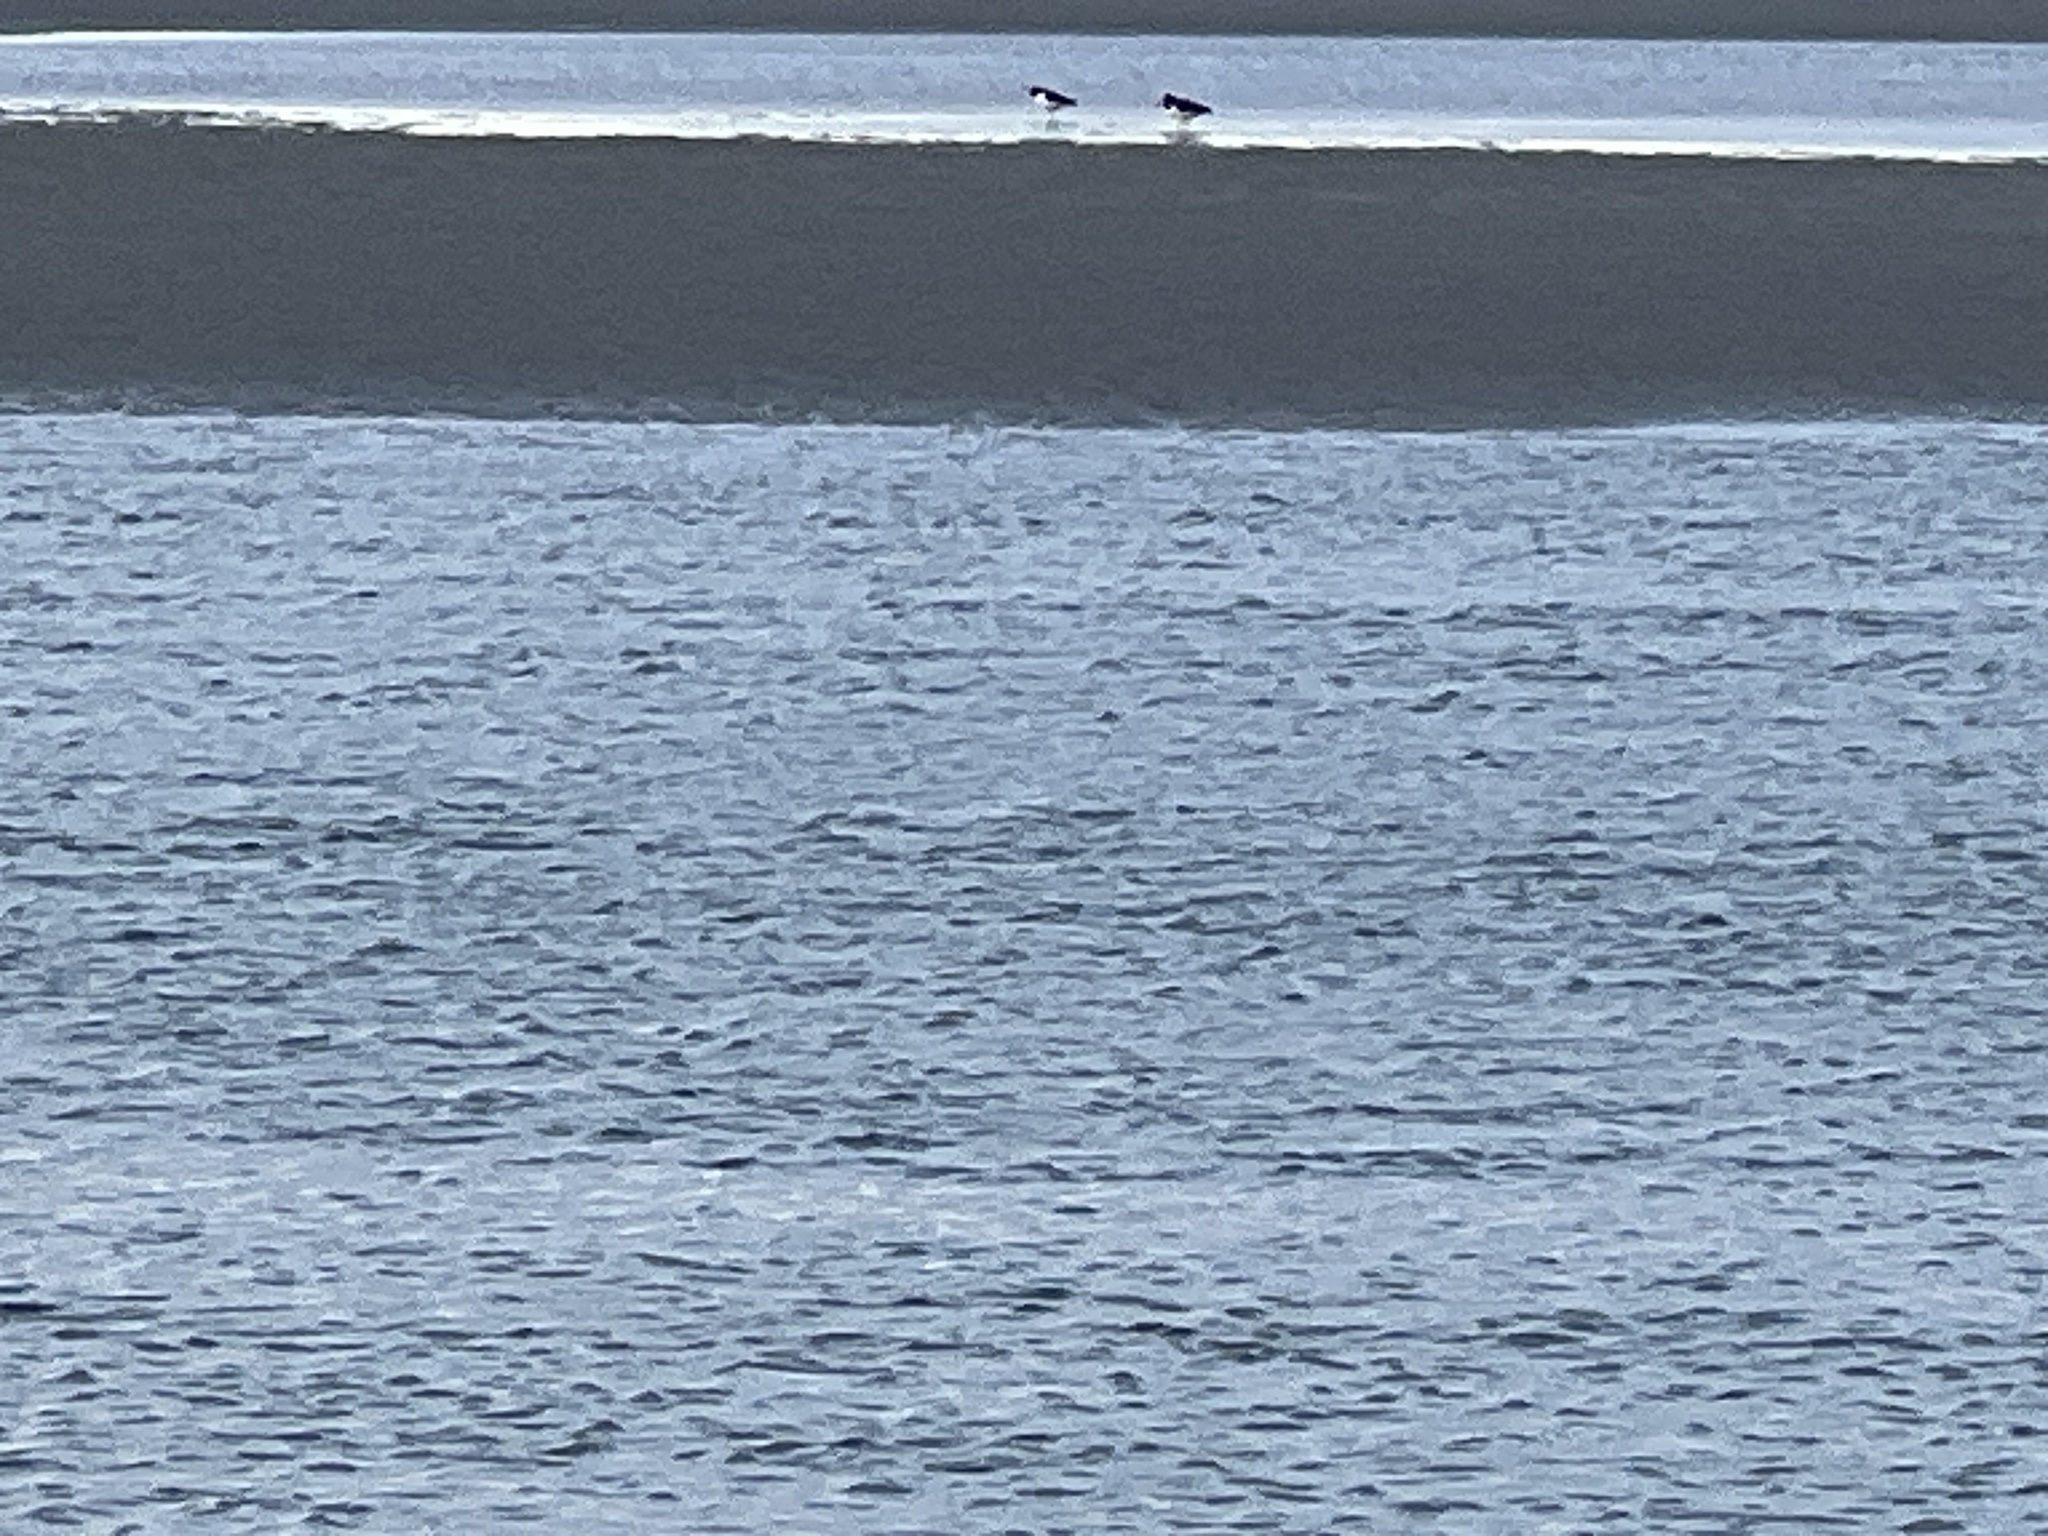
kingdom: Animalia
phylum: Chordata
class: Aves
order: Charadriiformes
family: Haematopodidae
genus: Haematopus
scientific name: Haematopus palliatus
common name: American oystercatcher
